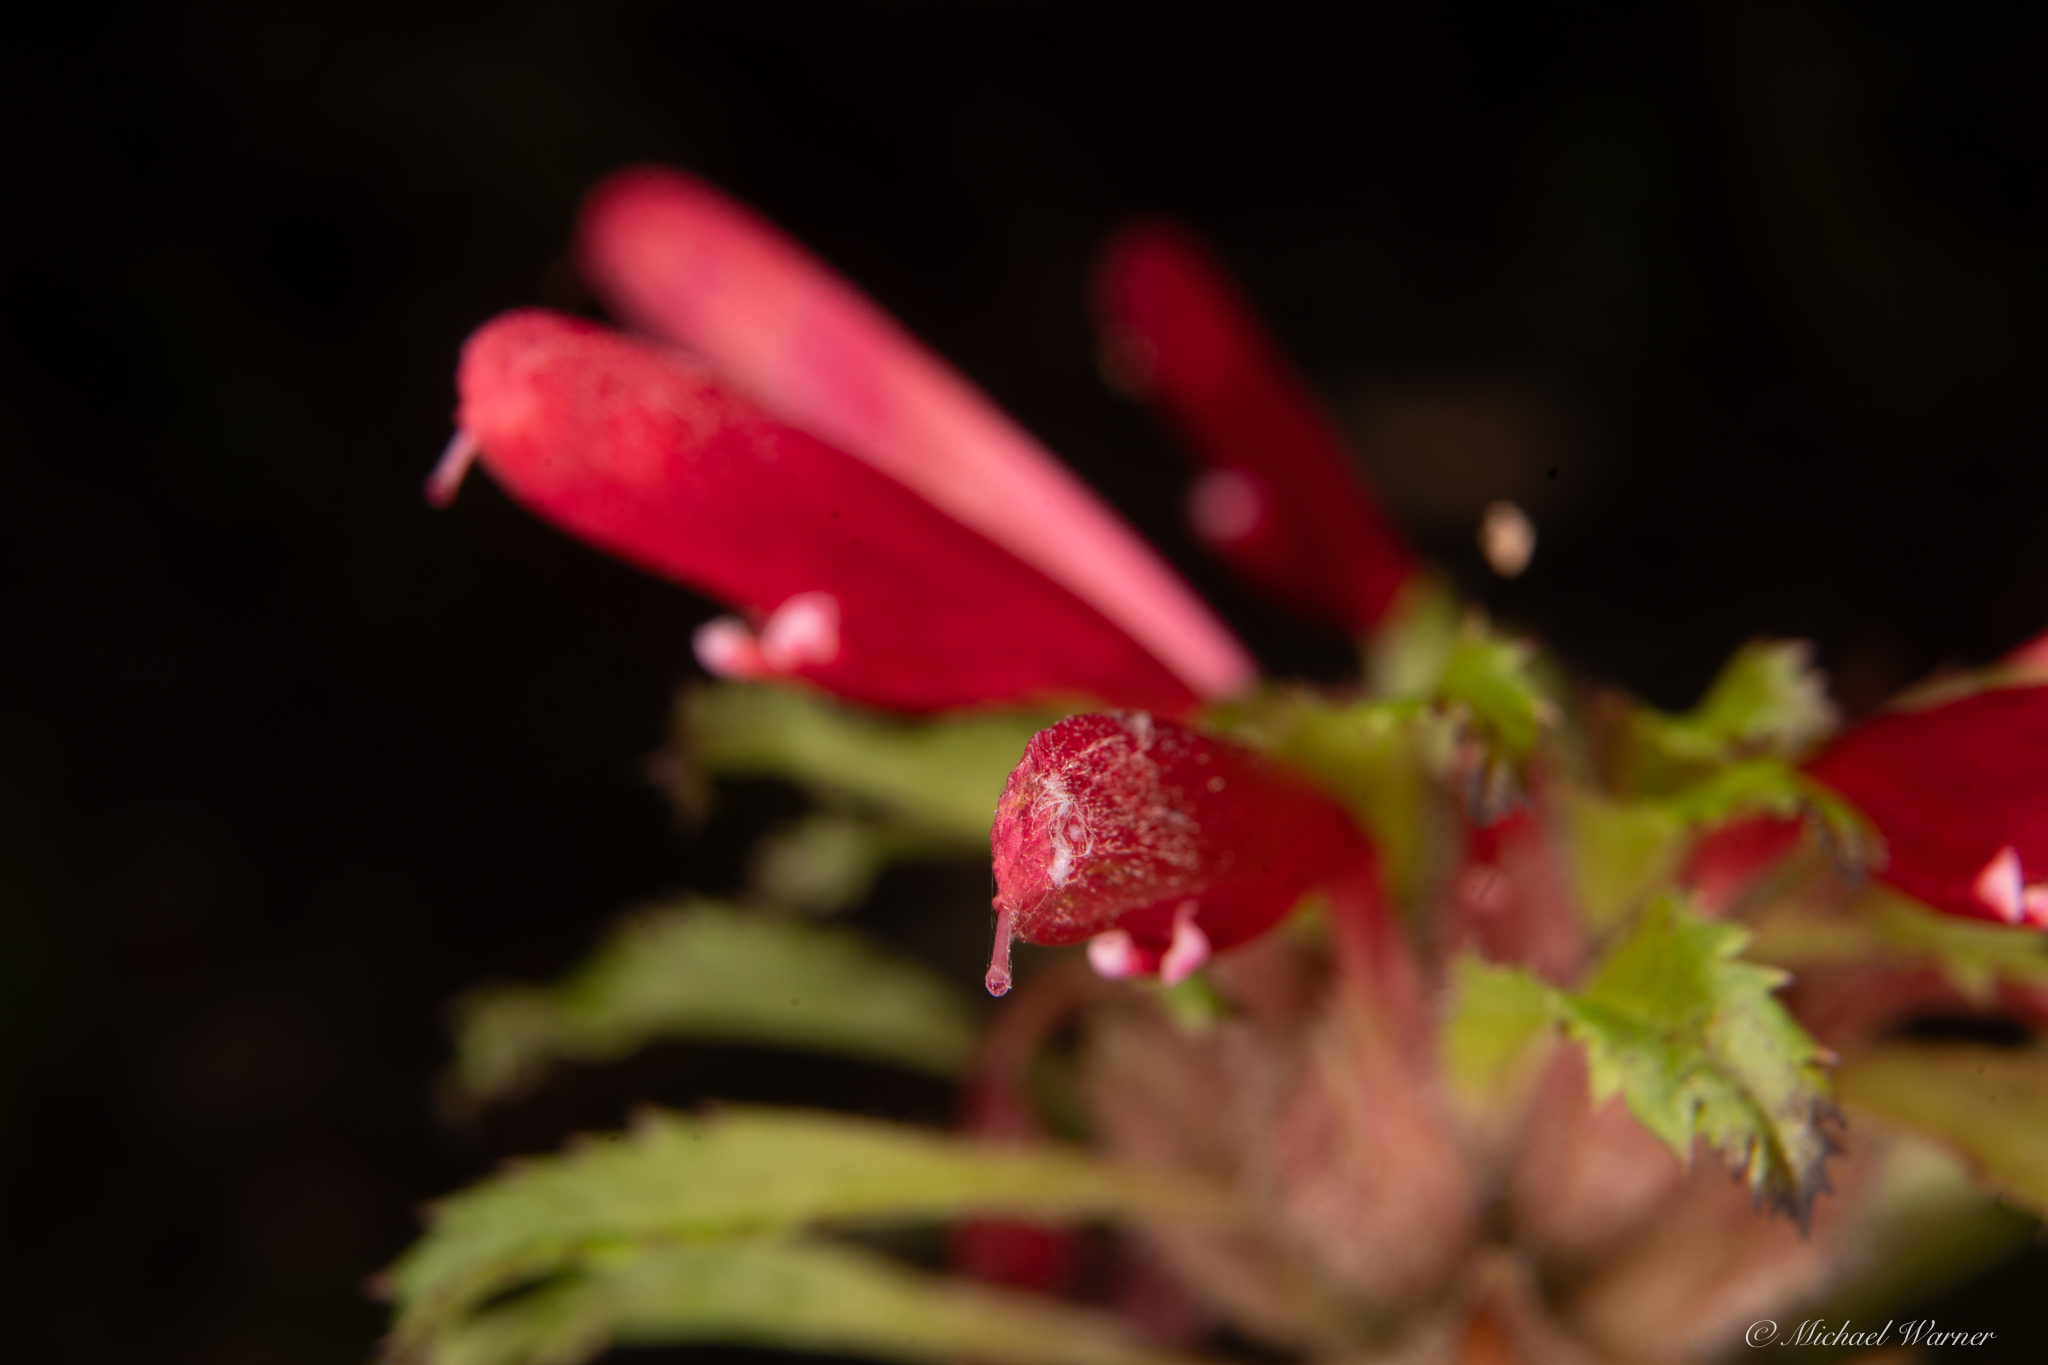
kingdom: Plantae
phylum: Tracheophyta
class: Magnoliopsida
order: Lamiales
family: Orobanchaceae
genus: Pedicularis
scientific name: Pedicularis densiflora
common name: Indian warrior
